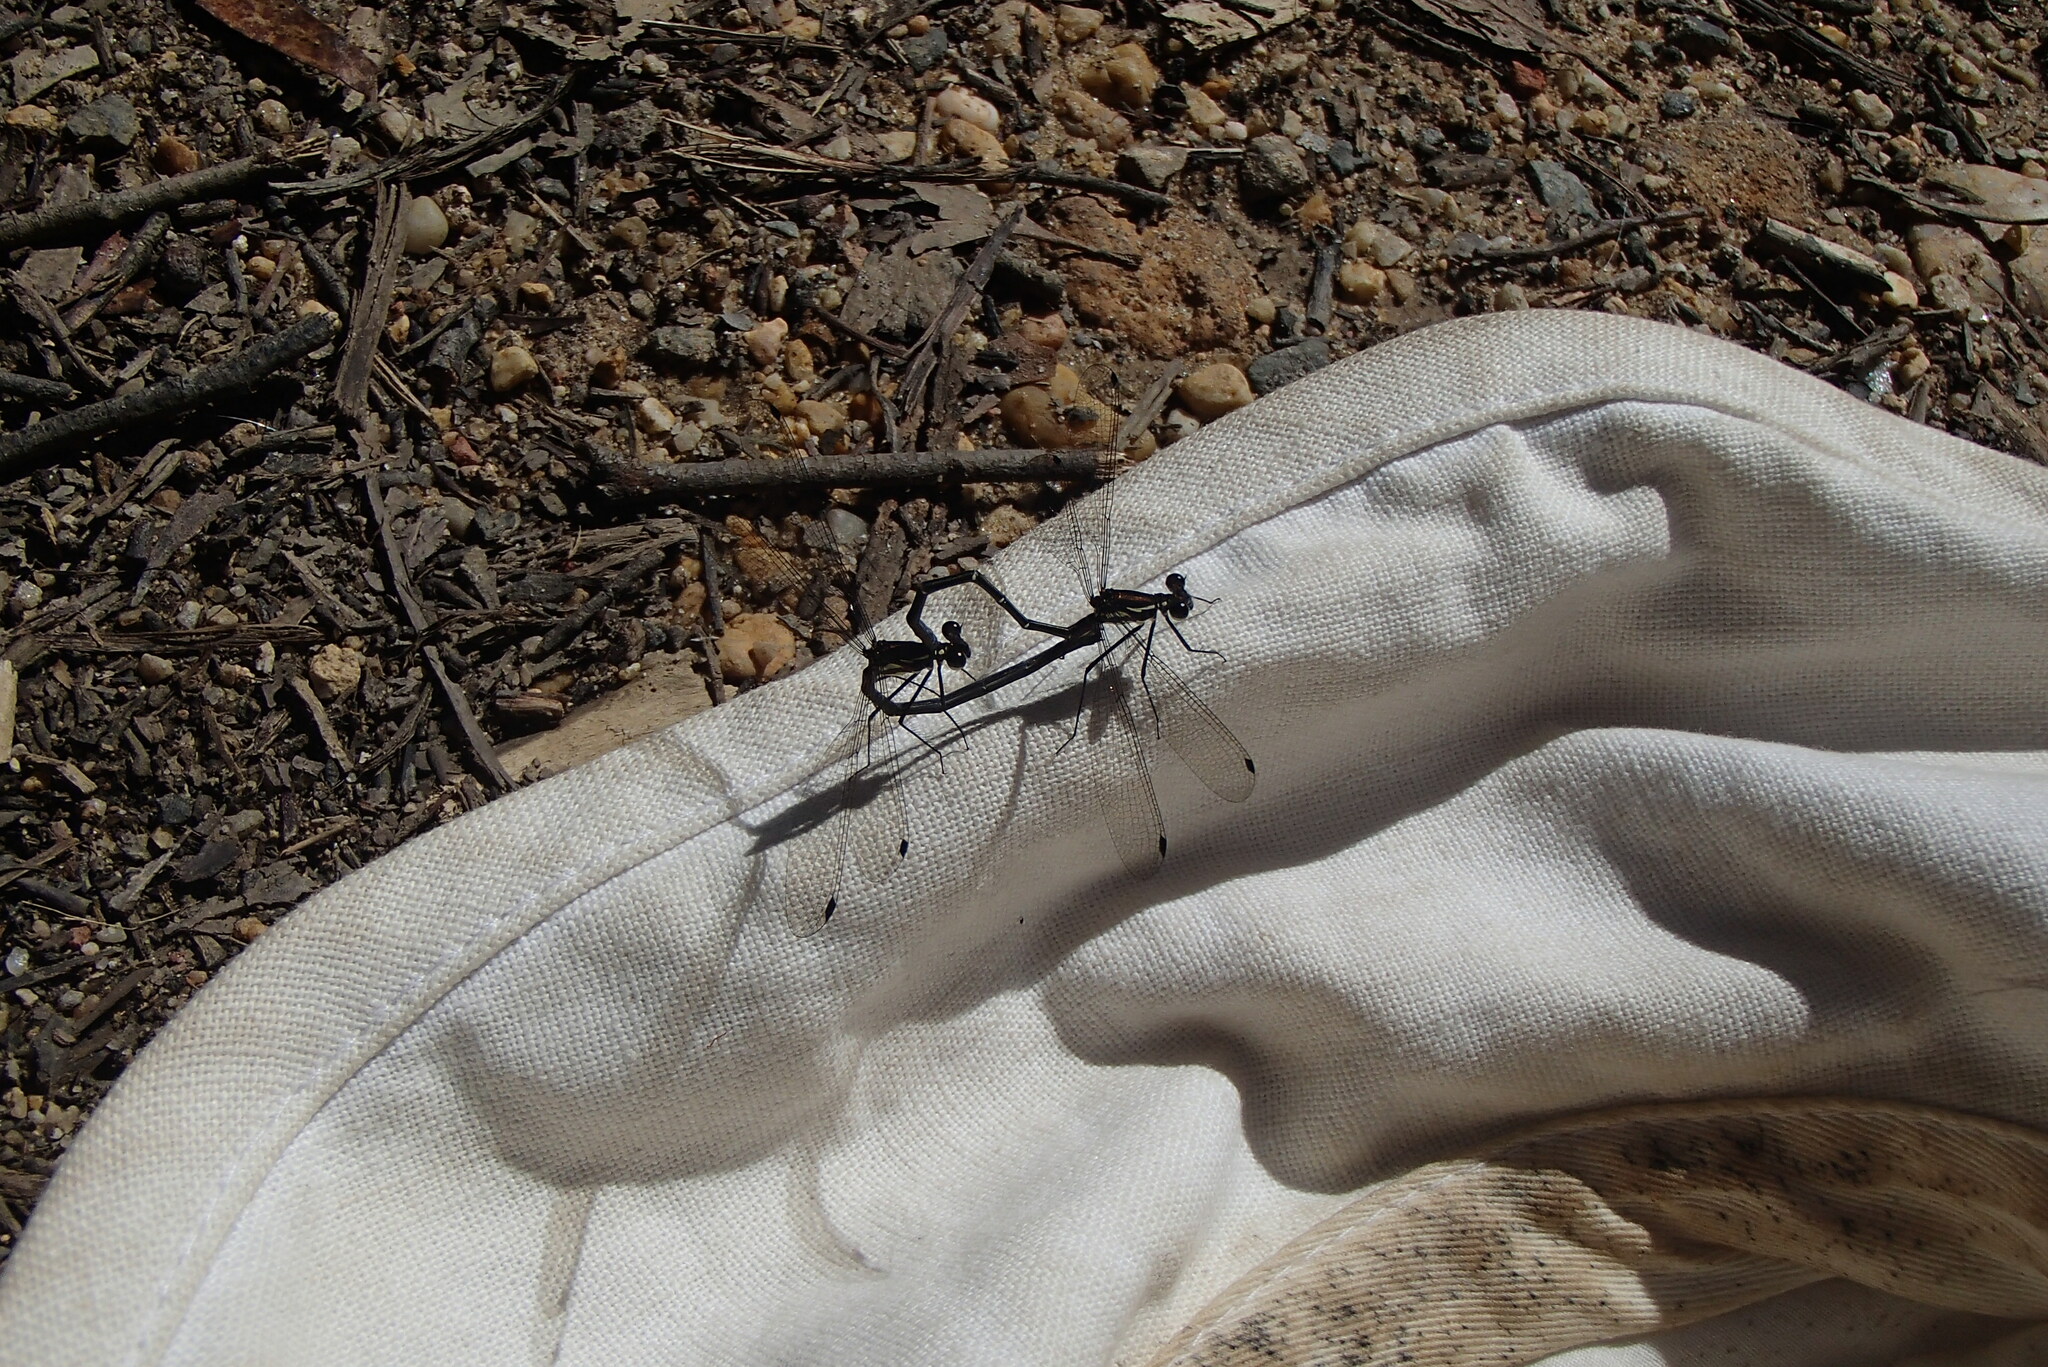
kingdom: Animalia
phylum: Arthropoda
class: Insecta
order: Odonata
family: Argiolestidae
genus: Austroargiolestes
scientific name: Austroargiolestes isabellae
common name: Sydney flatwing
